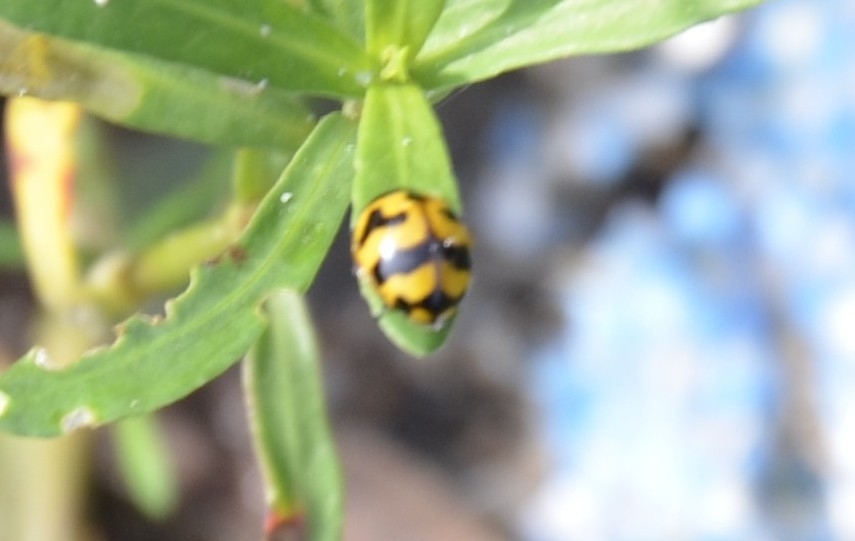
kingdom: Animalia
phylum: Arthropoda
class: Insecta
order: Coleoptera
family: Coccinellidae
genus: Coccinella
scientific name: Coccinella transversalis
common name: Transverse lady beetle
